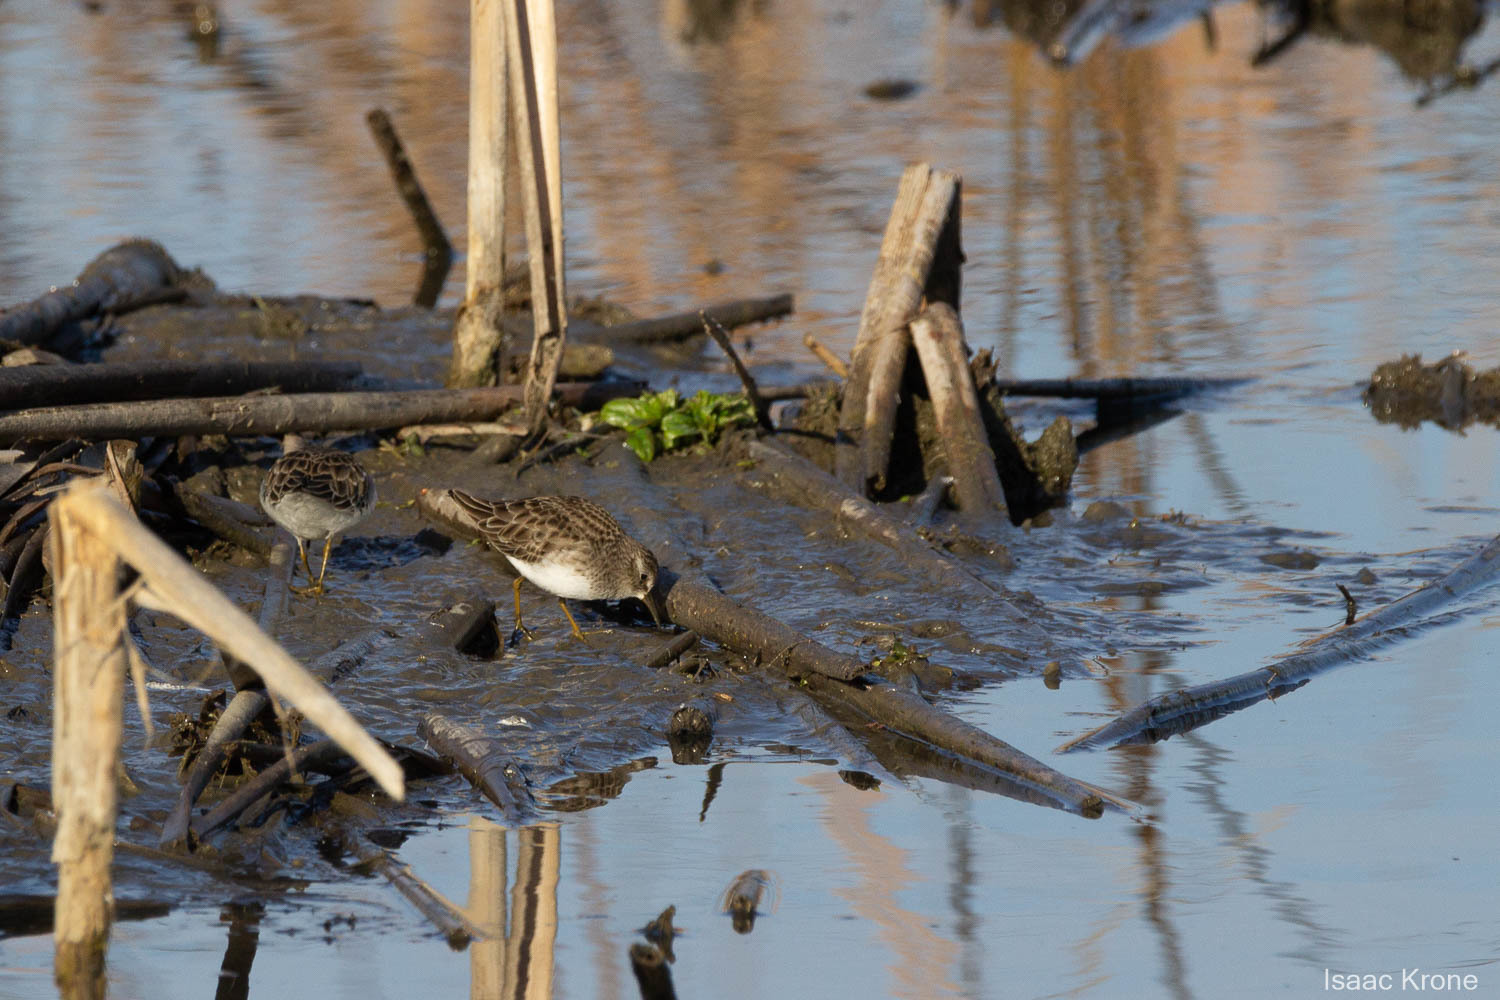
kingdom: Animalia
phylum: Chordata
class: Aves
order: Charadriiformes
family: Scolopacidae
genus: Calidris
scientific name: Calidris minutilla
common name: Least sandpiper
